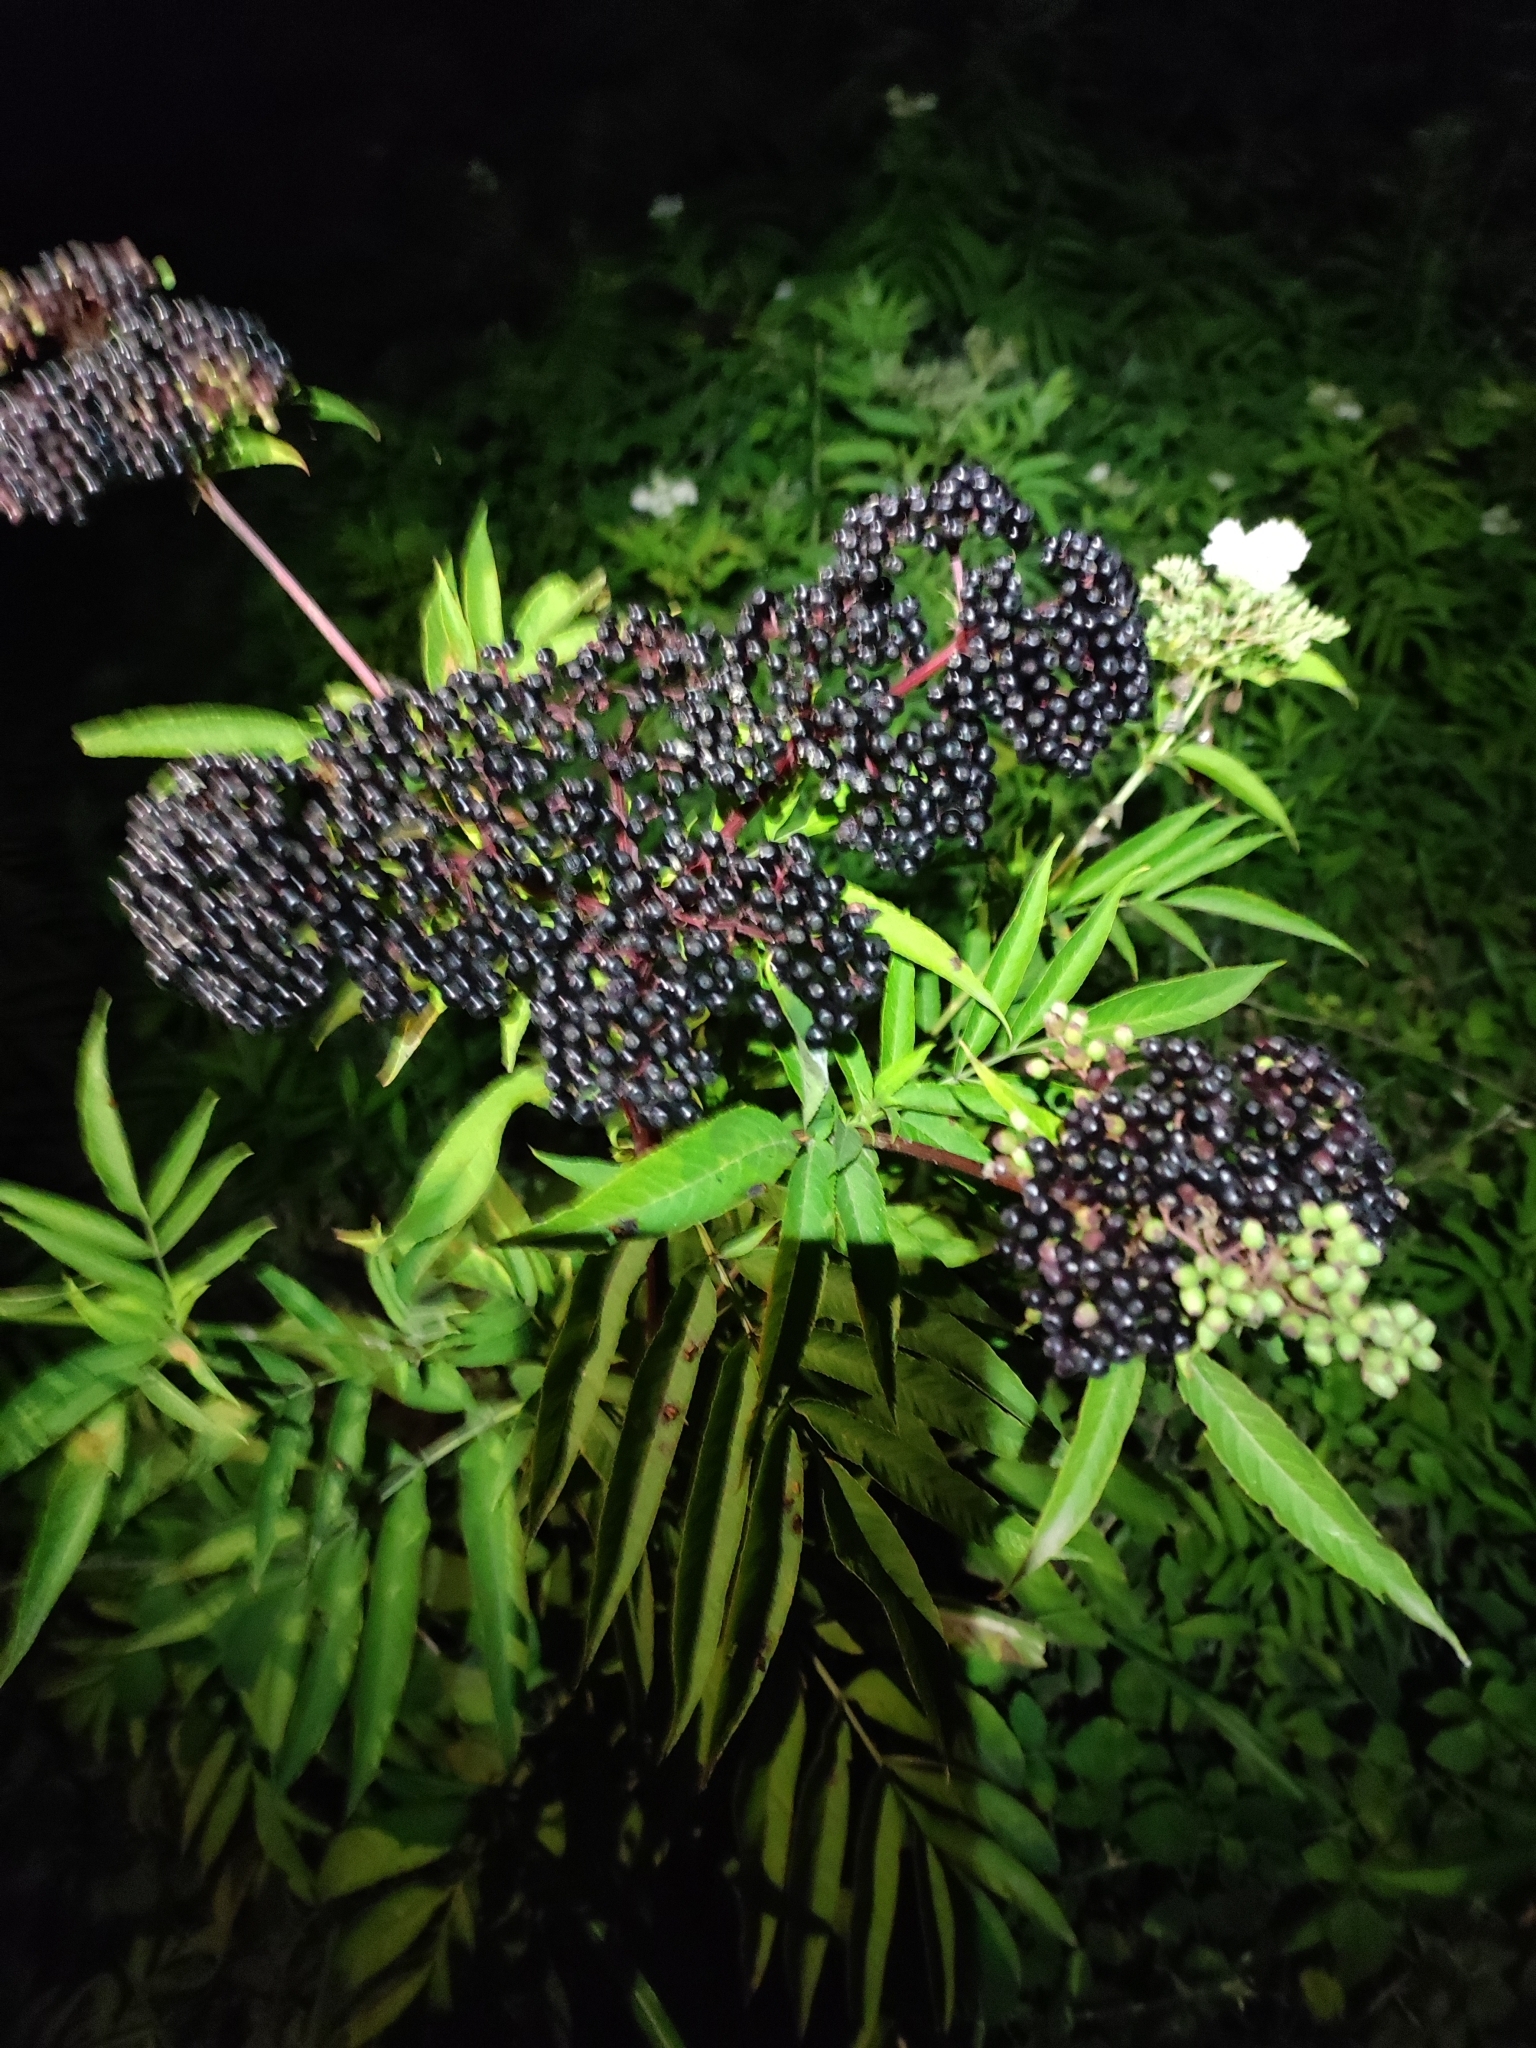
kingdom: Plantae
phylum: Tracheophyta
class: Magnoliopsida
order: Dipsacales
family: Viburnaceae
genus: Sambucus
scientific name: Sambucus ebulus
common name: Dwarf elder
